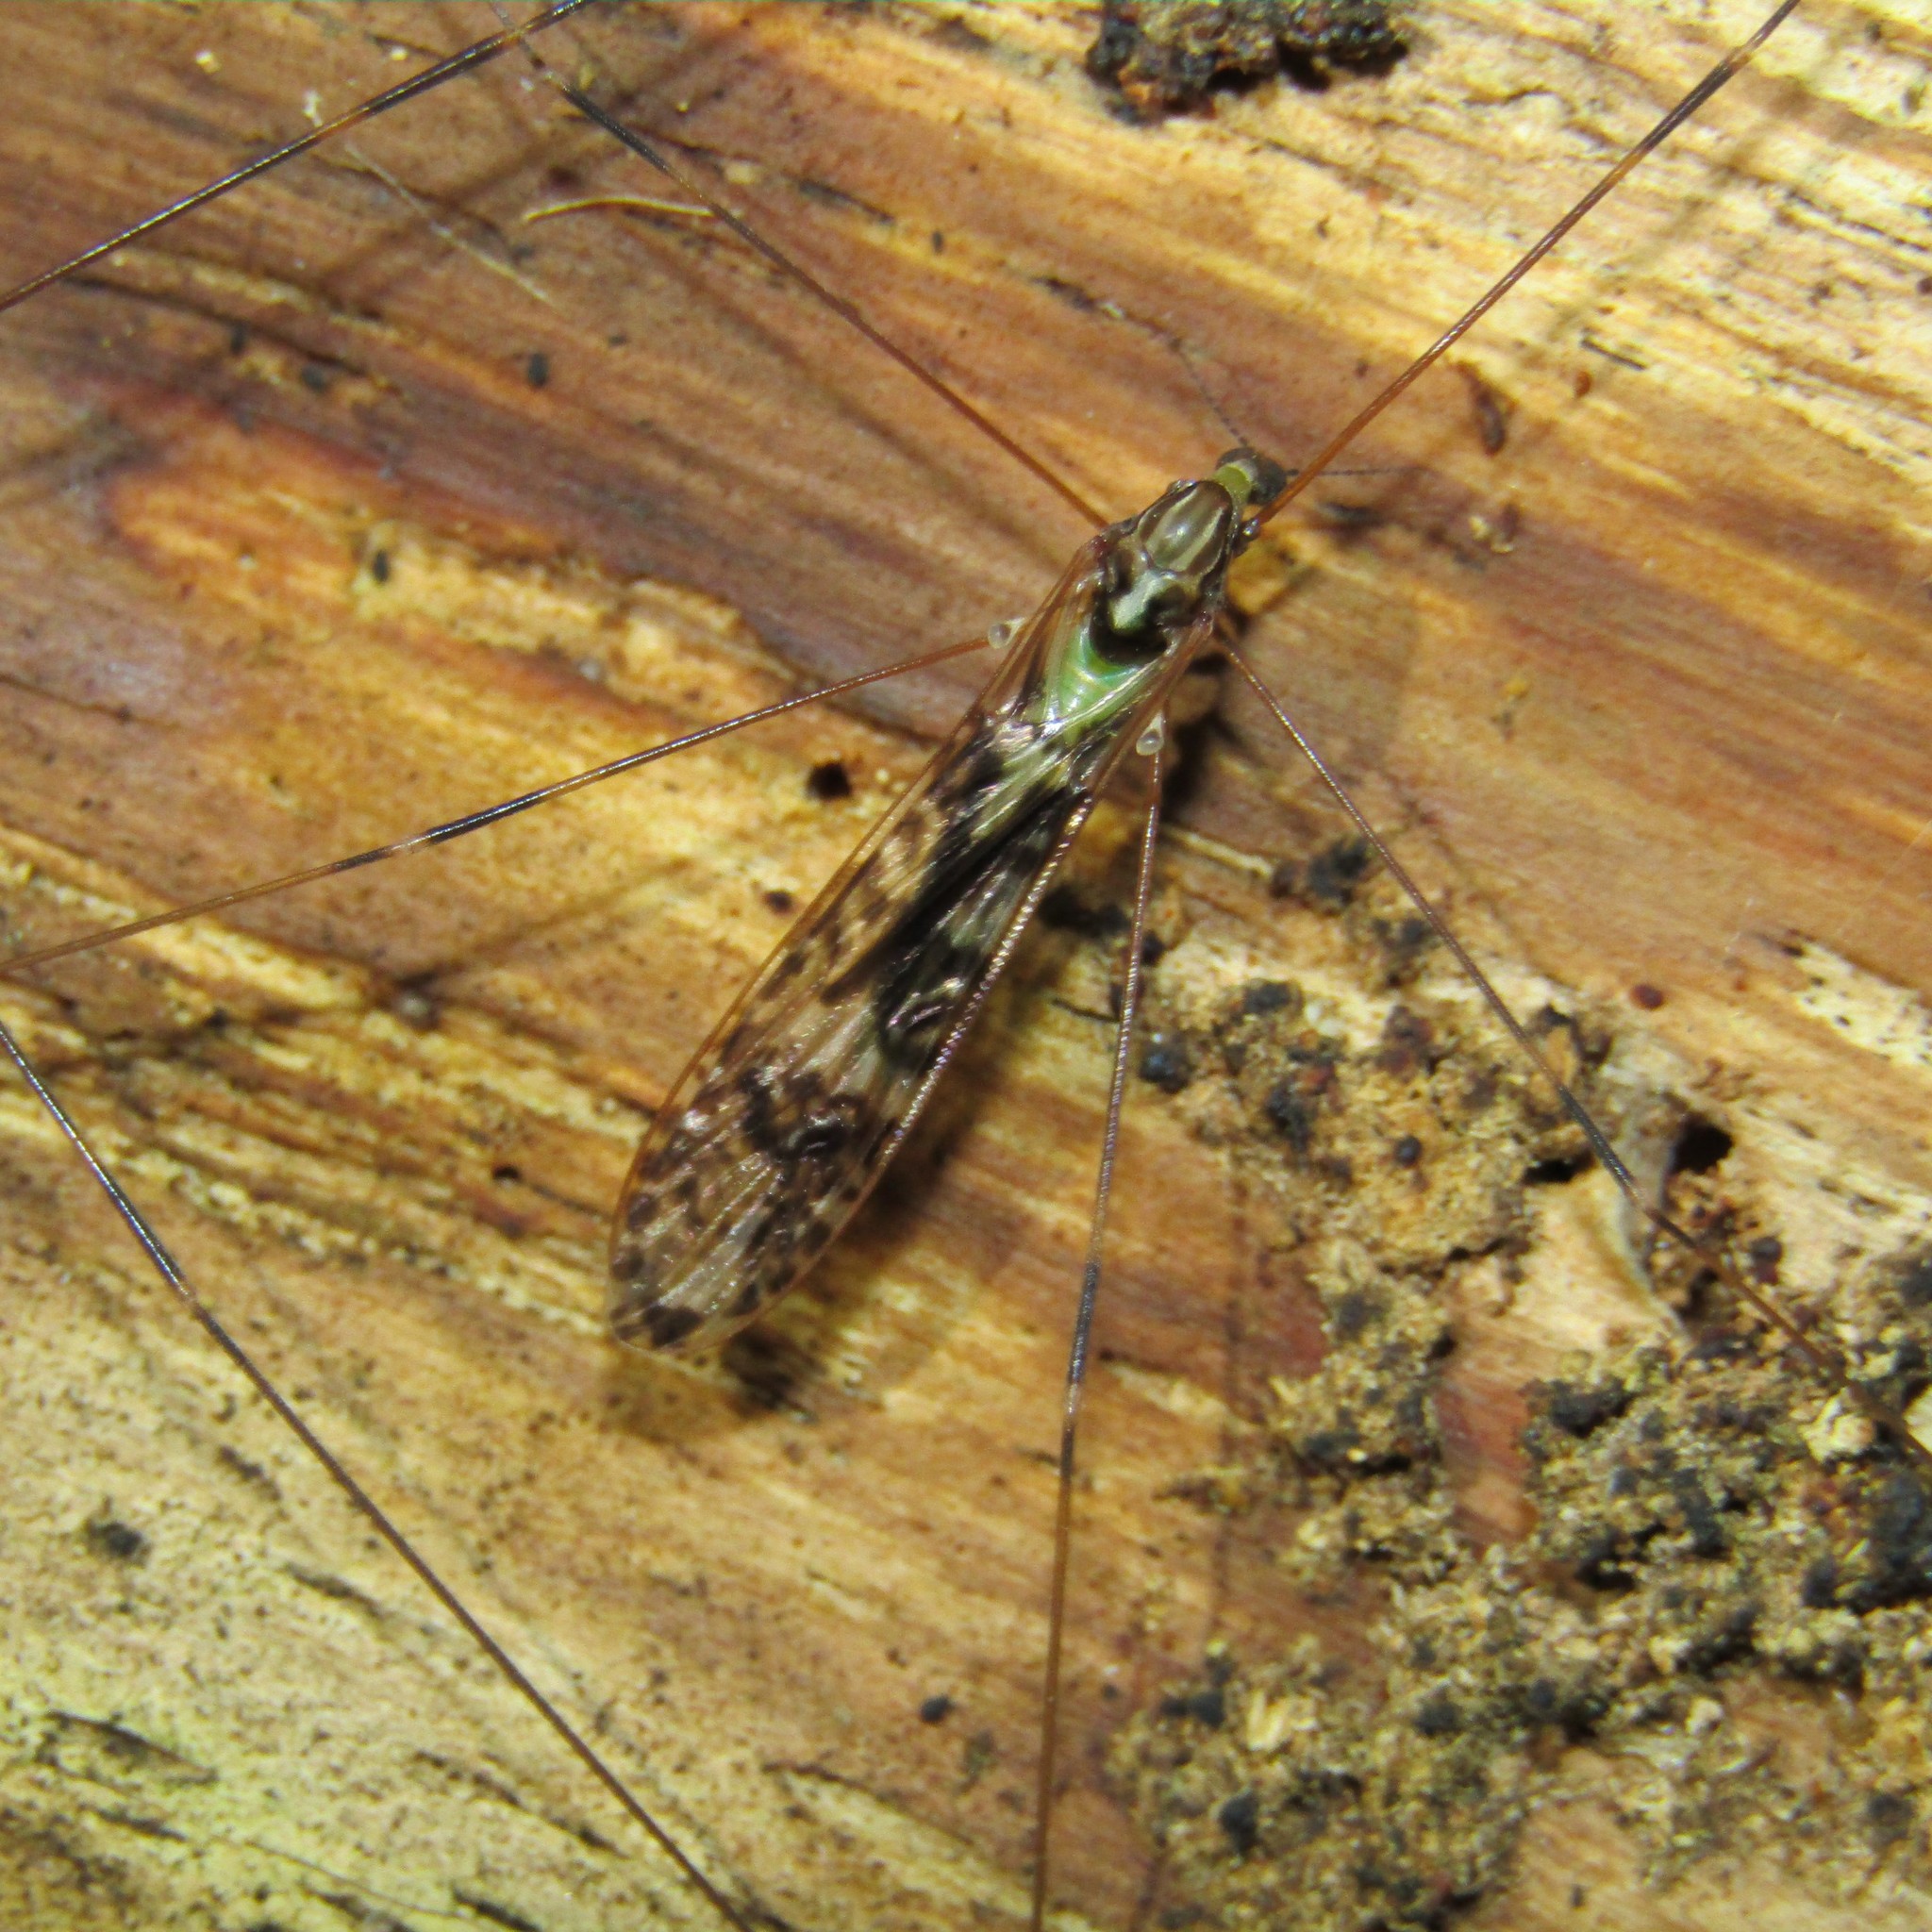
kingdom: Animalia
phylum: Arthropoda
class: Insecta
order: Diptera
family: Limoniidae
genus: Discobola
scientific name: Discobola dohrni
